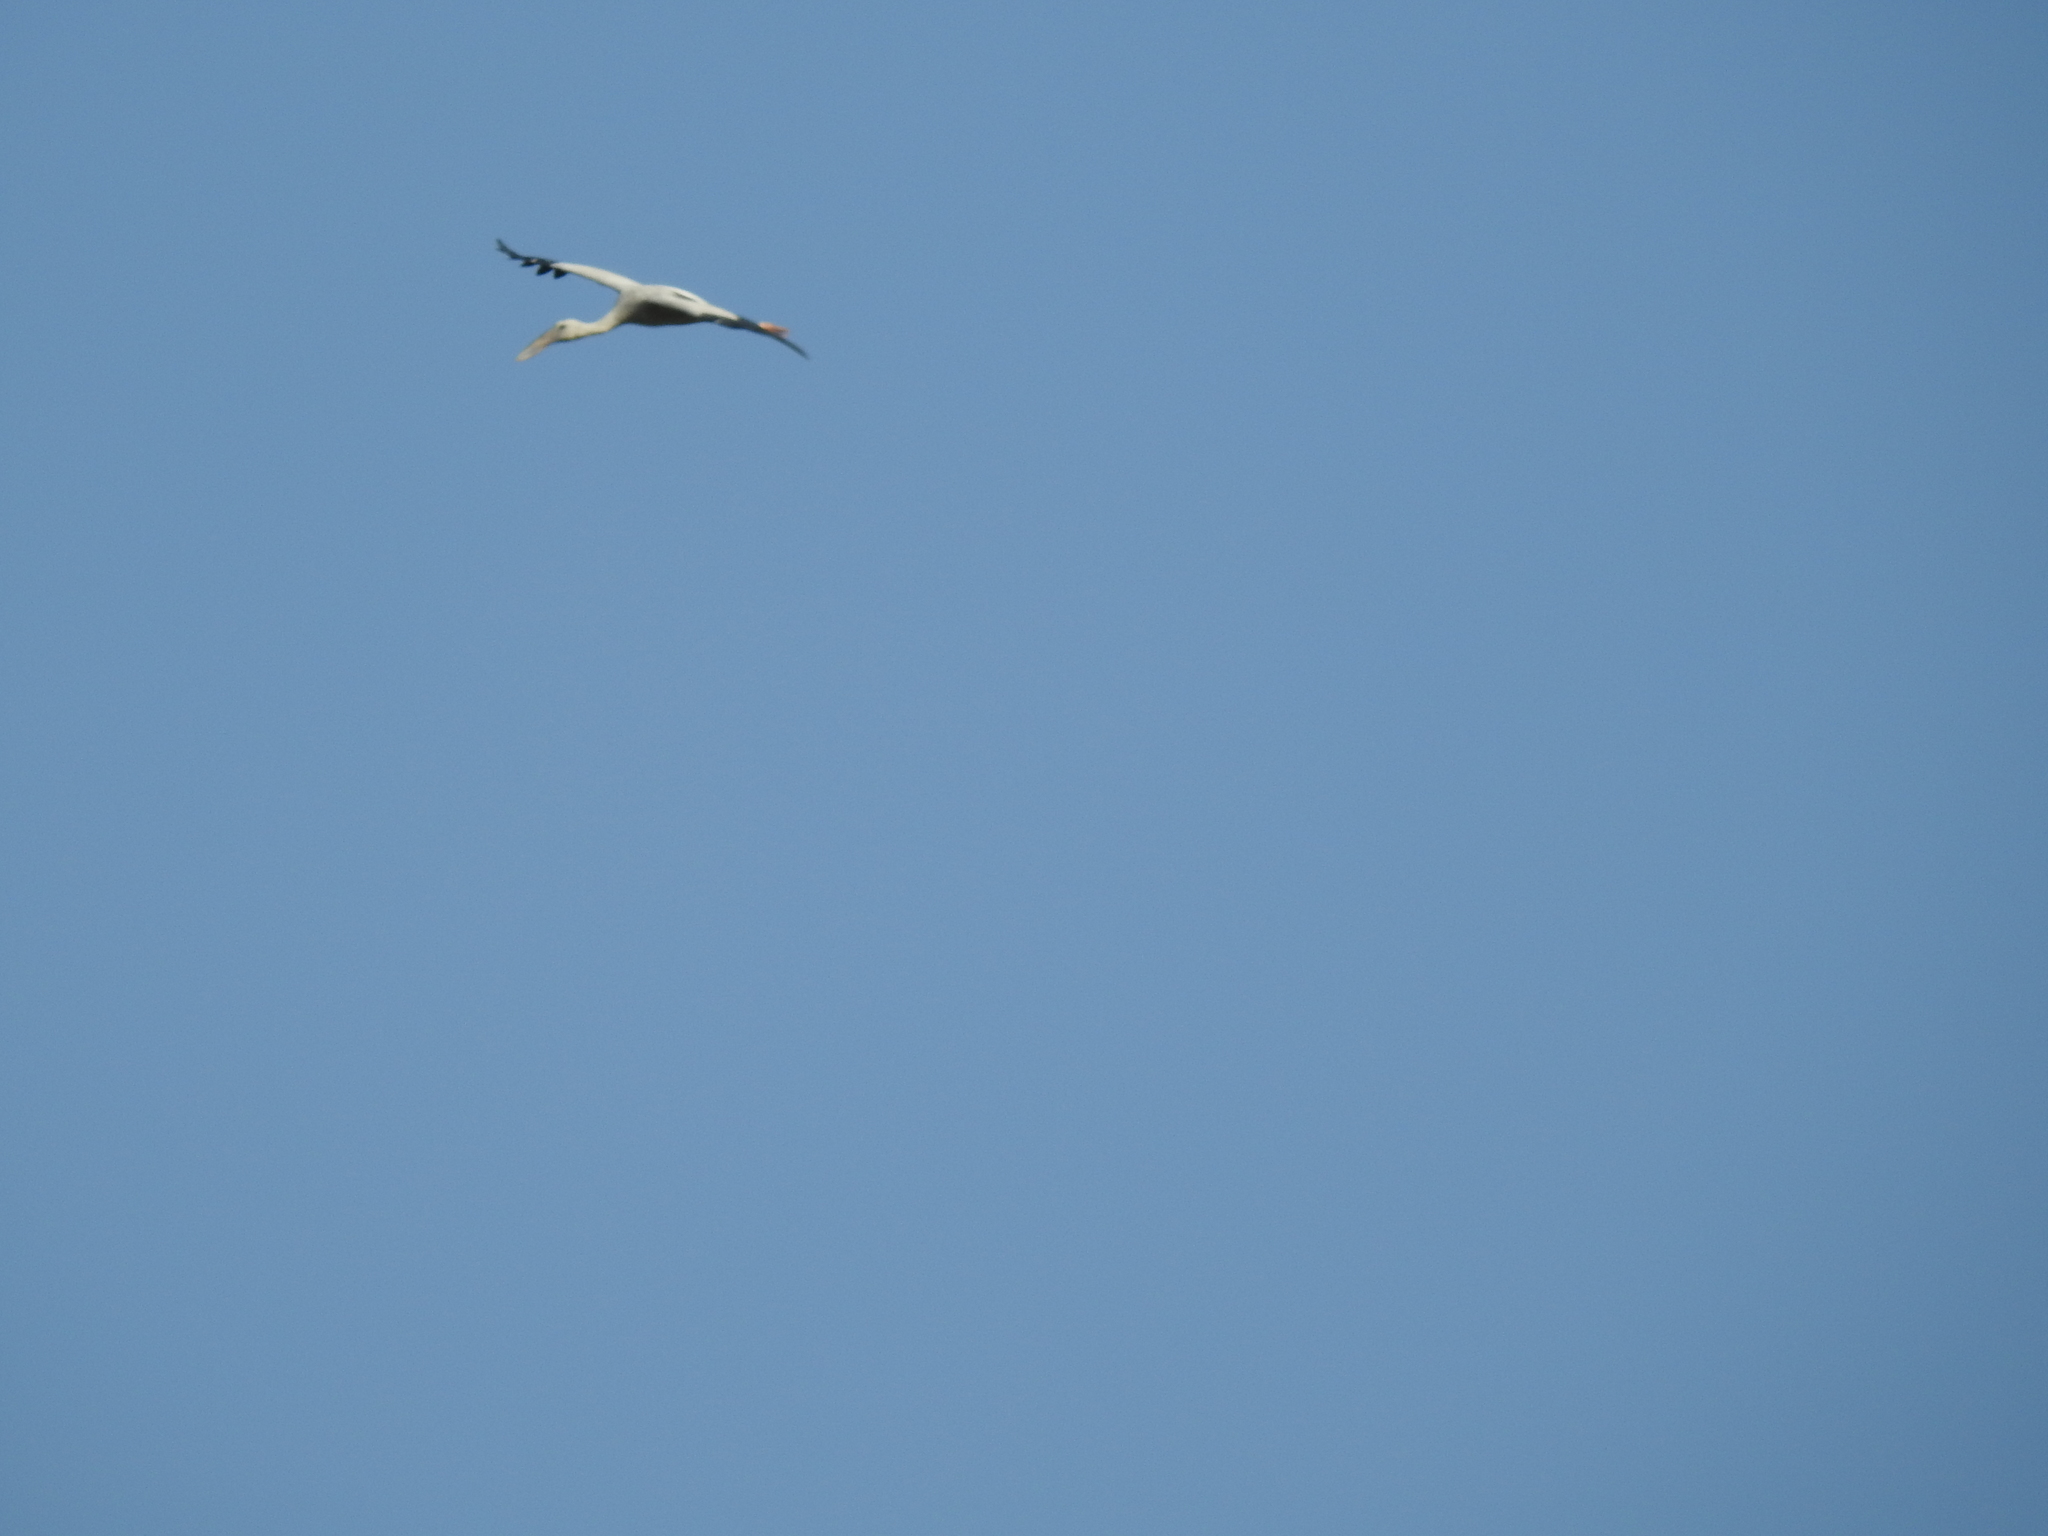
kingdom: Animalia
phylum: Chordata
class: Aves
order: Ciconiiformes
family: Ciconiidae
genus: Anastomus
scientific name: Anastomus oscitans
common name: Asian openbill
